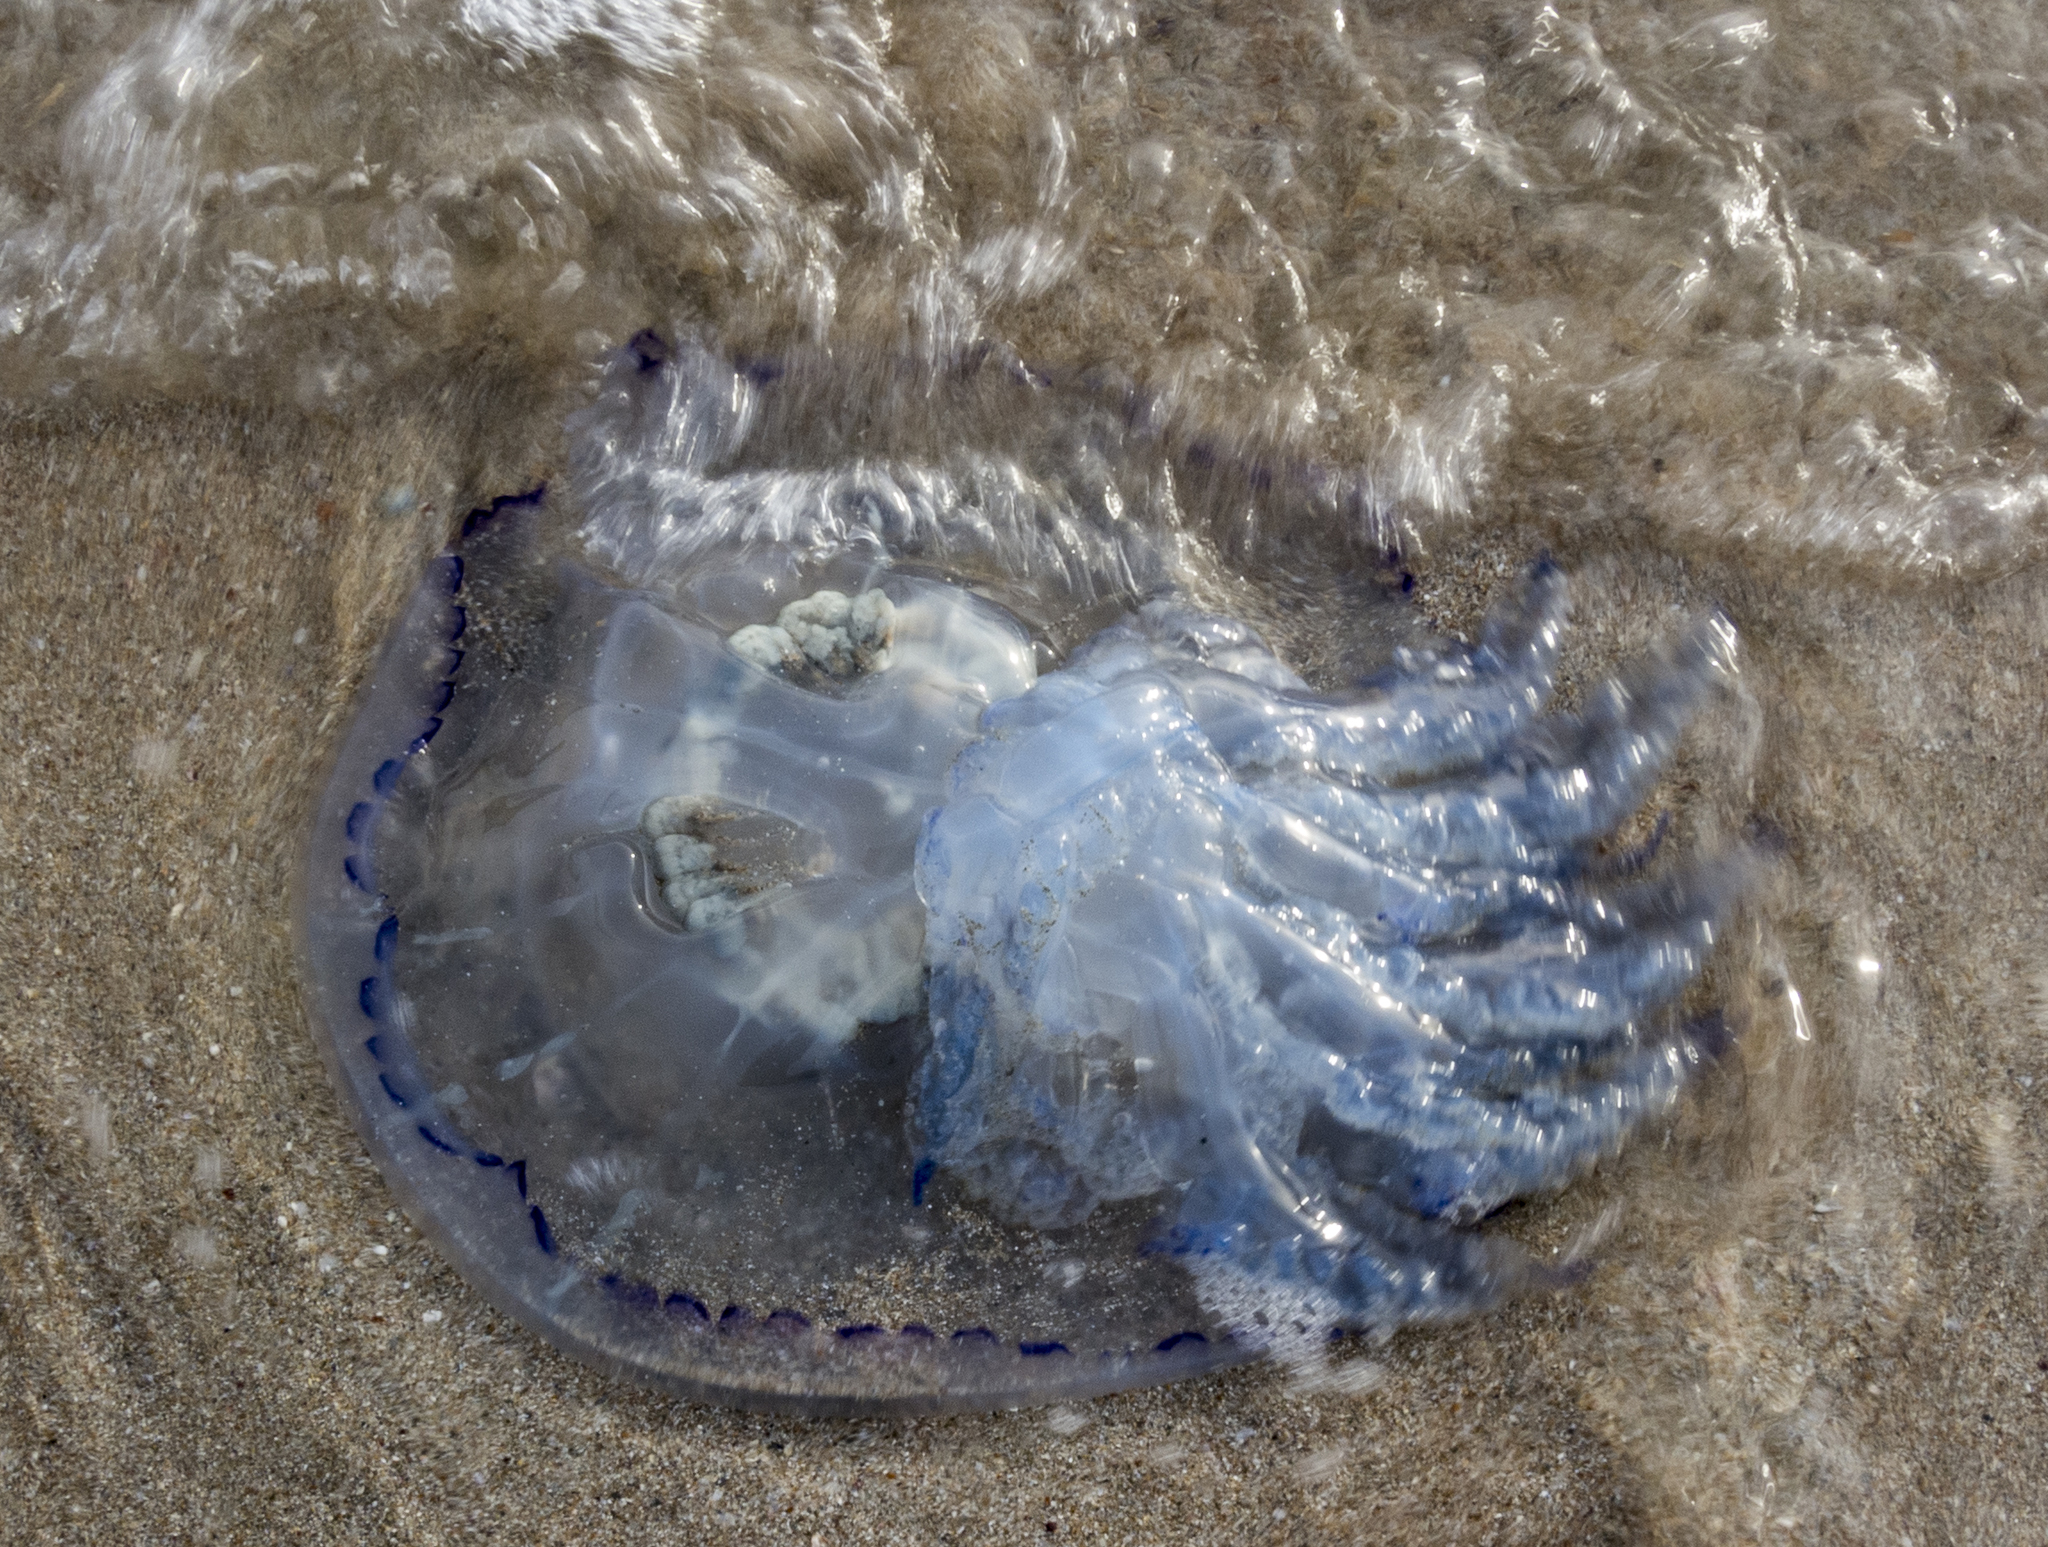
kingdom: Animalia
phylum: Cnidaria
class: Scyphozoa
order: Rhizostomeae
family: Rhizostomatidae
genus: Rhizostoma
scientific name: Rhizostoma pulmo
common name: Barrel jellyfish
